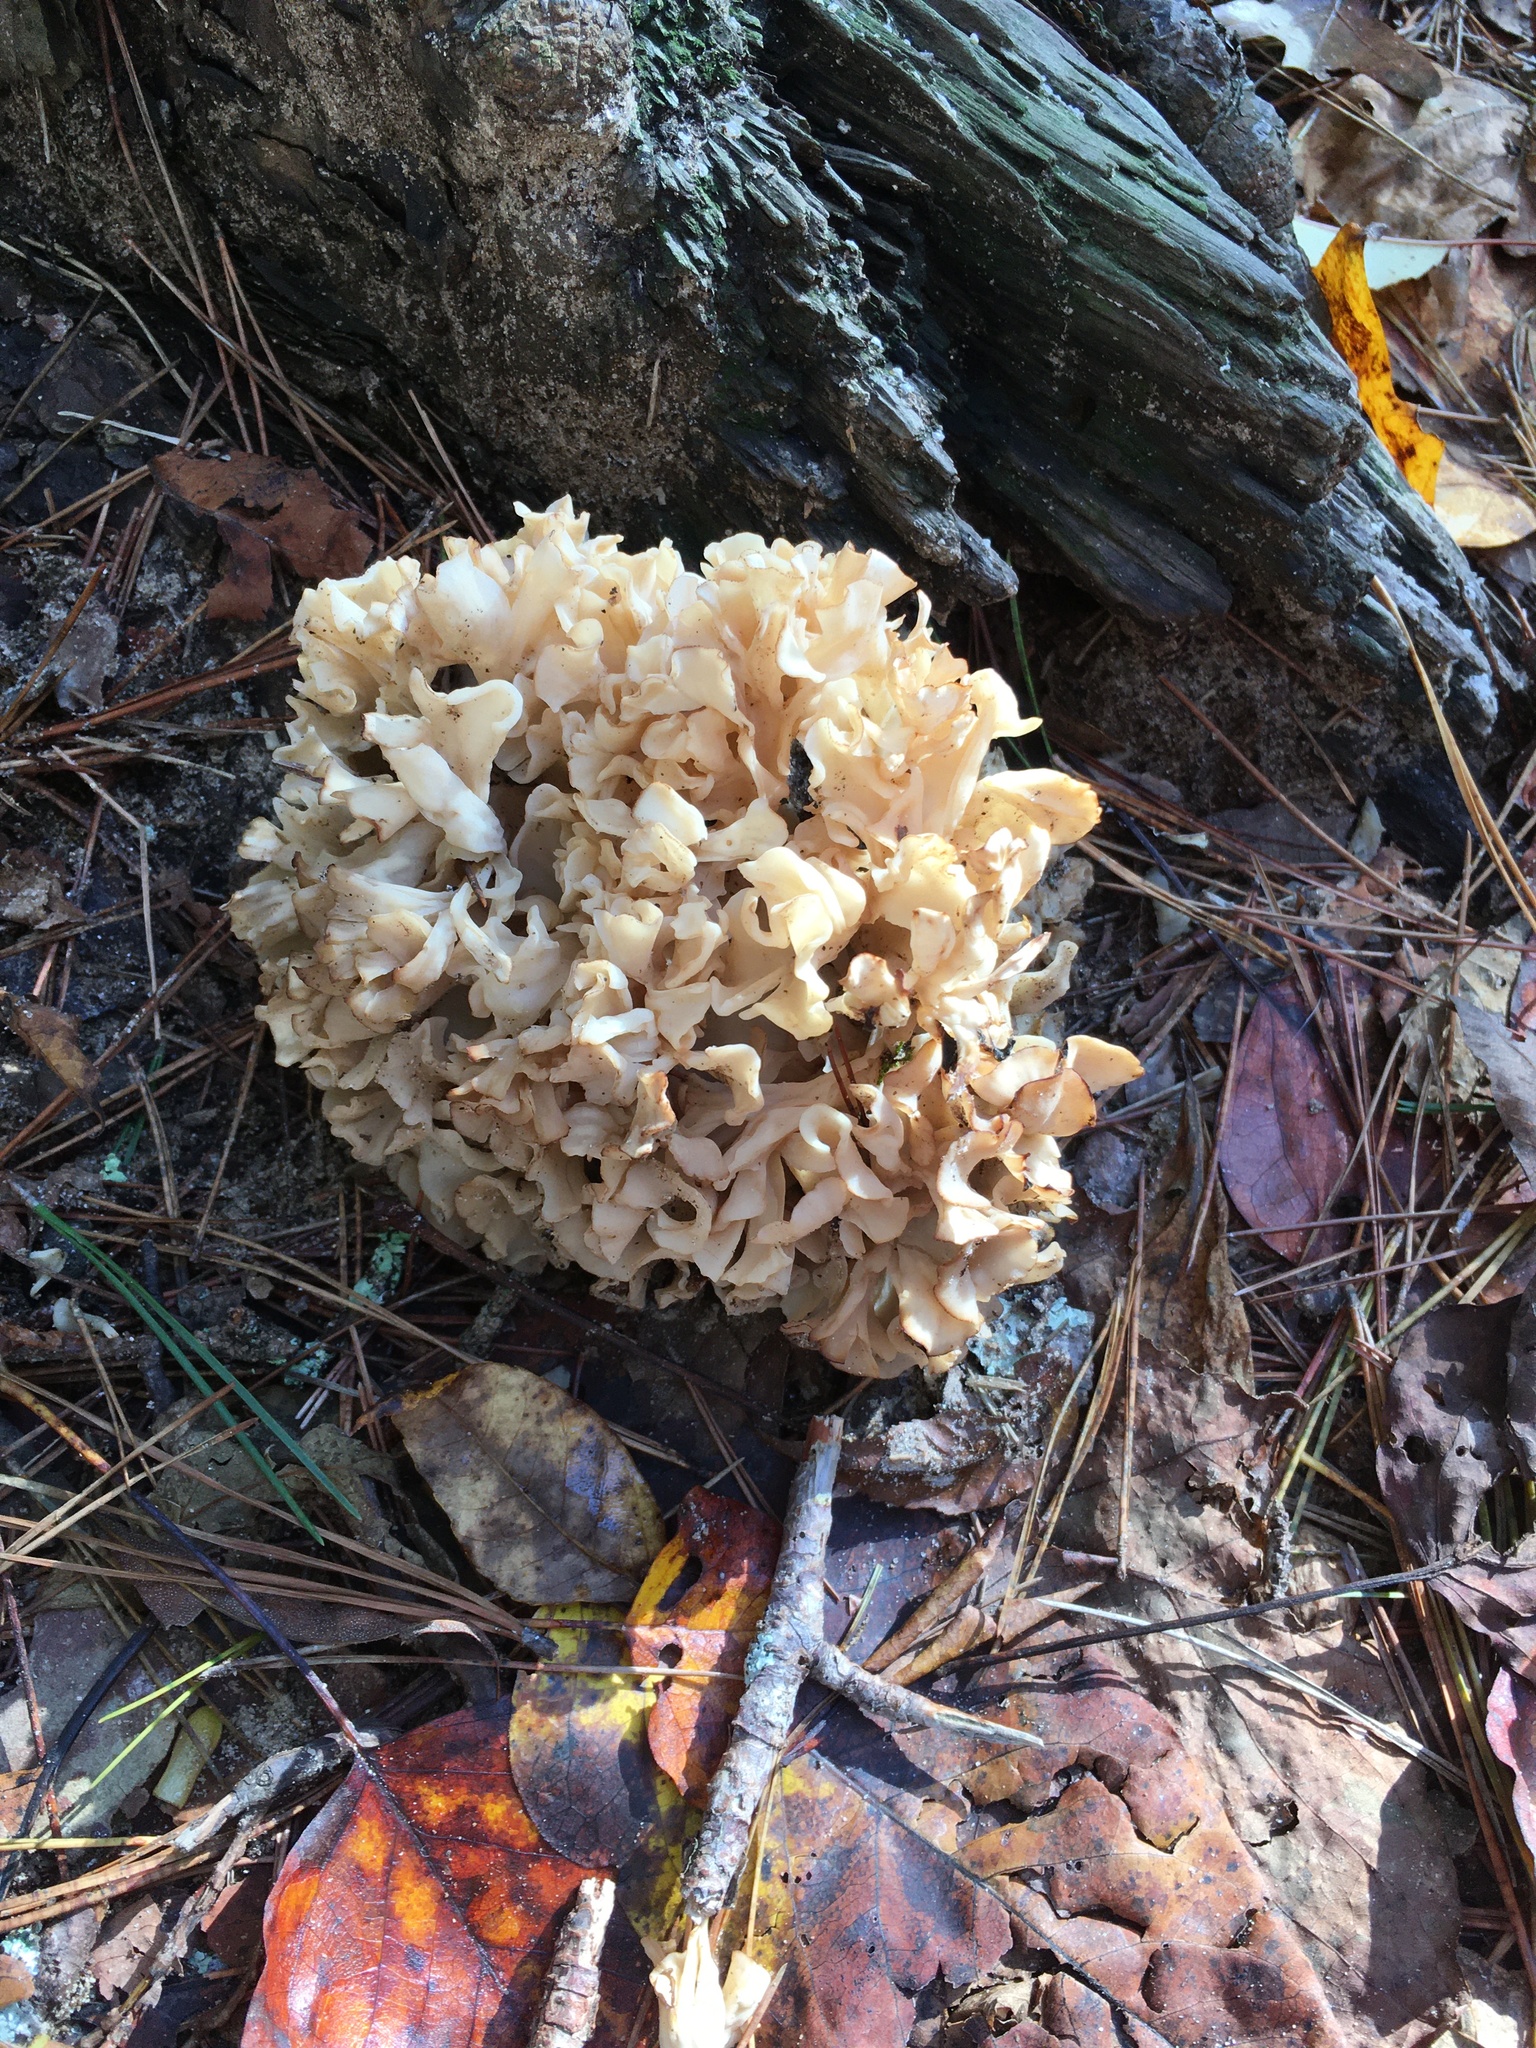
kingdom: Fungi
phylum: Basidiomycota
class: Agaricomycetes
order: Polyporales
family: Sparassidaceae
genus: Sparassis
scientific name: Sparassis americana
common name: American cauliflower mushroom
